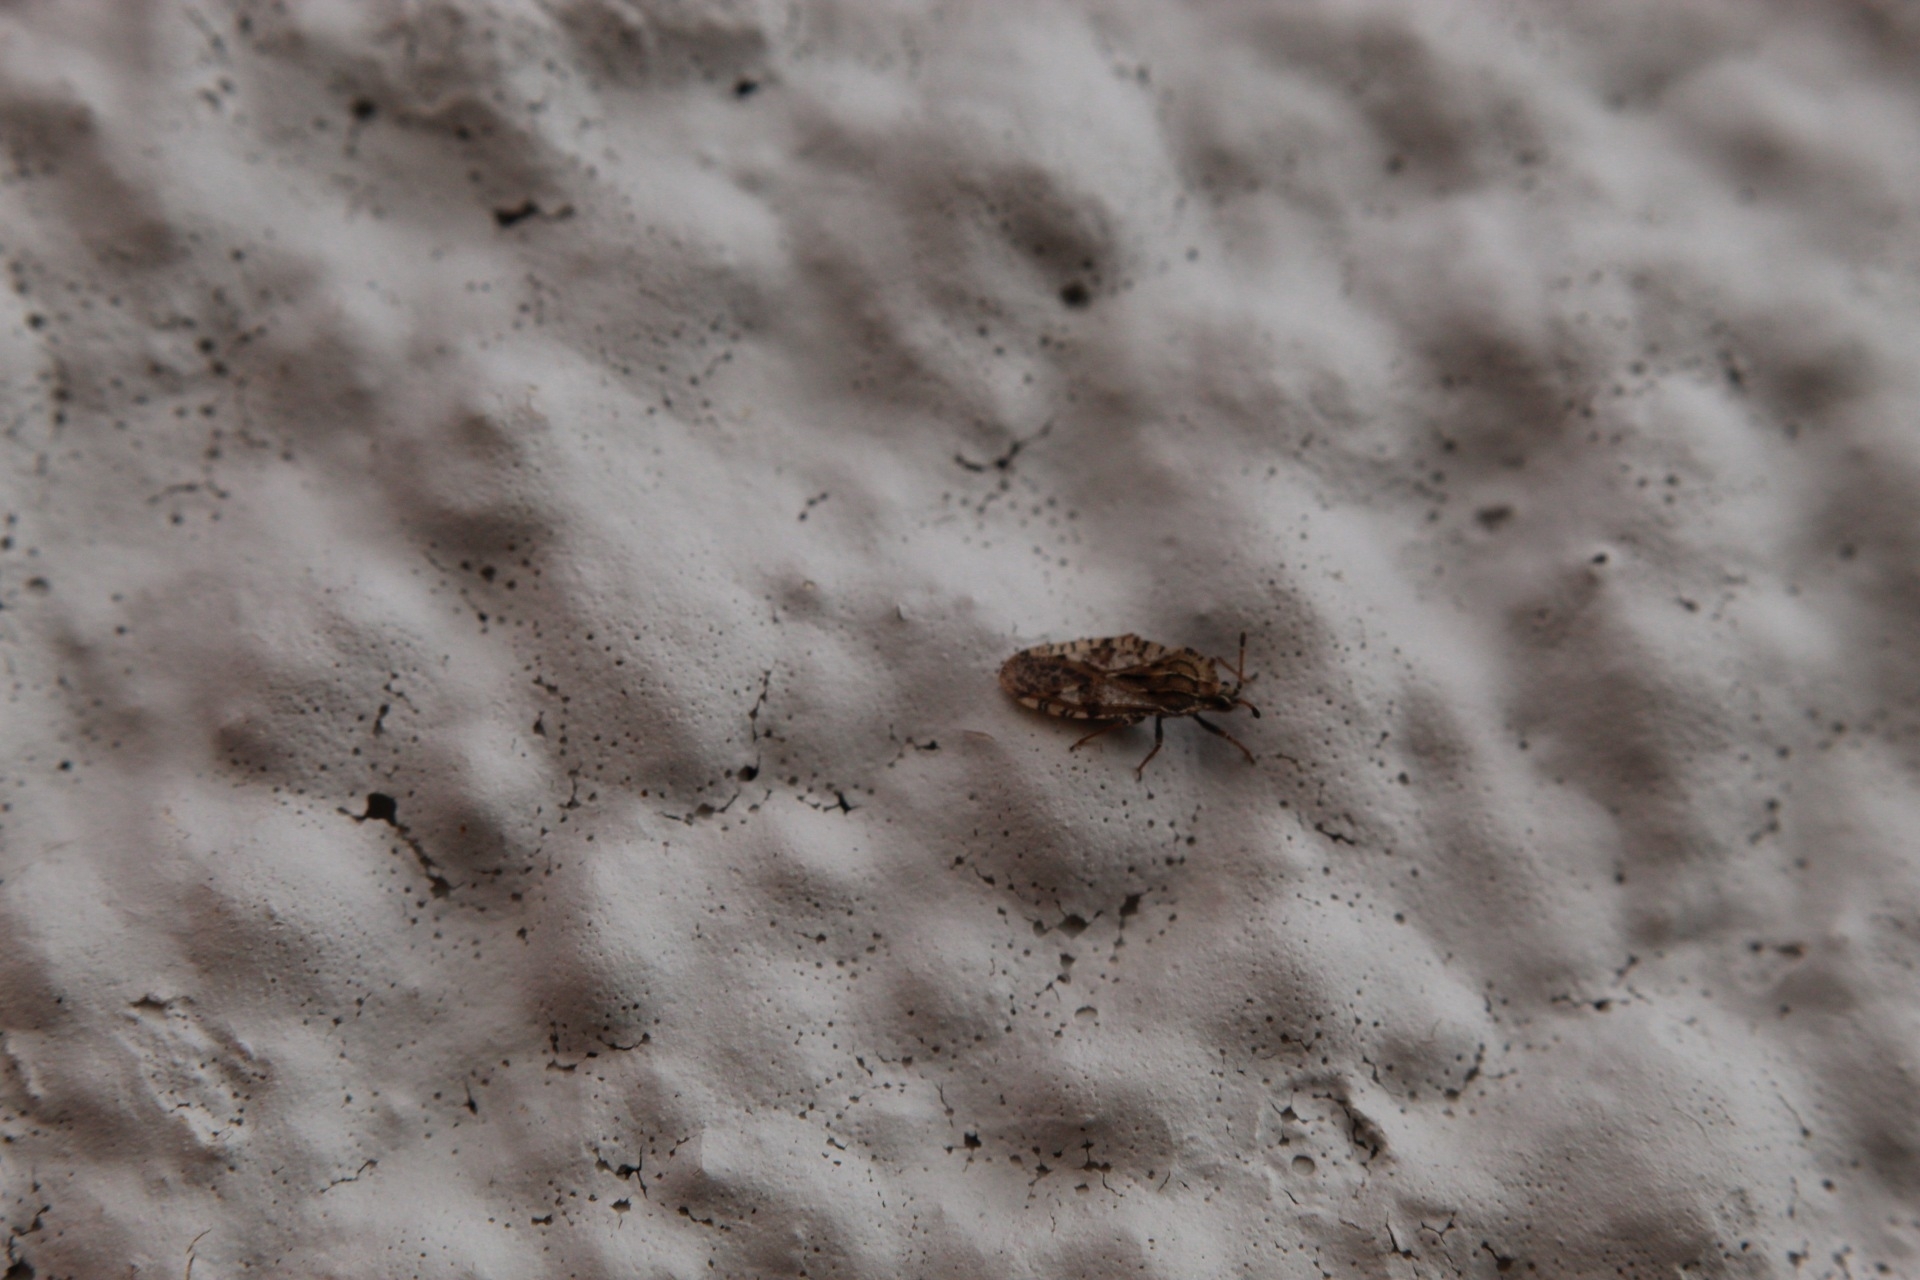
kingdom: Animalia
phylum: Arthropoda
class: Insecta
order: Hemiptera
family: Tingidae
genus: Tingis
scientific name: Tingis cardui
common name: Spear thistle lacebug
